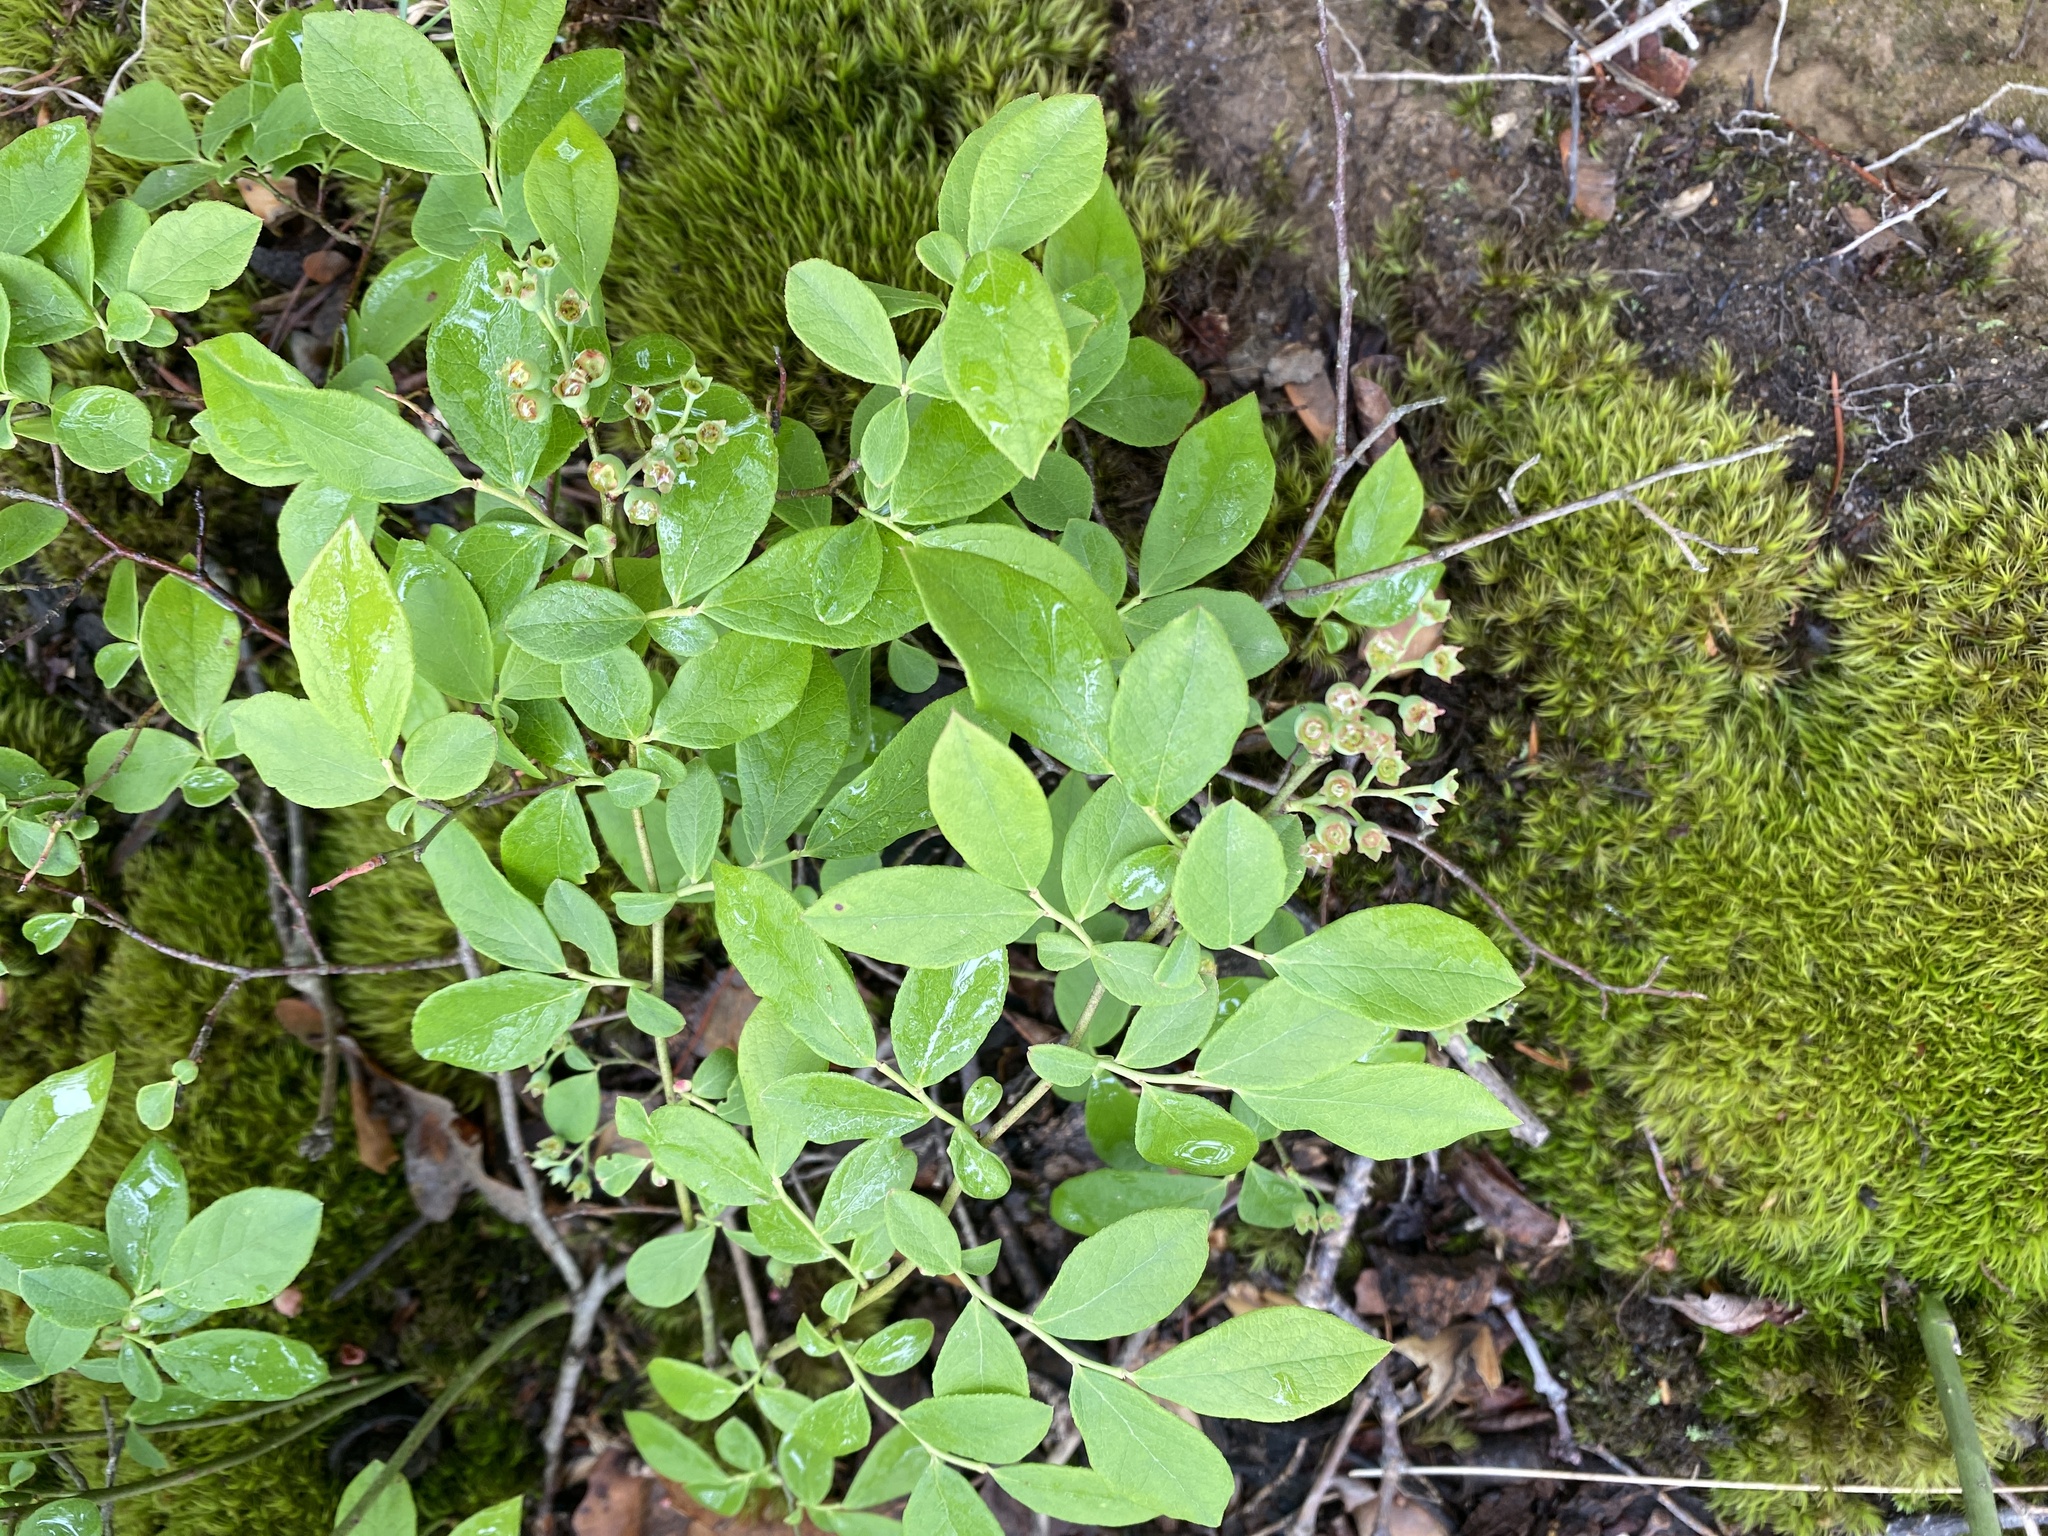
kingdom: Plantae
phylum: Tracheophyta
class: Magnoliopsida
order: Ericales
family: Ericaceae
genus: Vaccinium
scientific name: Vaccinium pallidum
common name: Blue ridge blueberry
